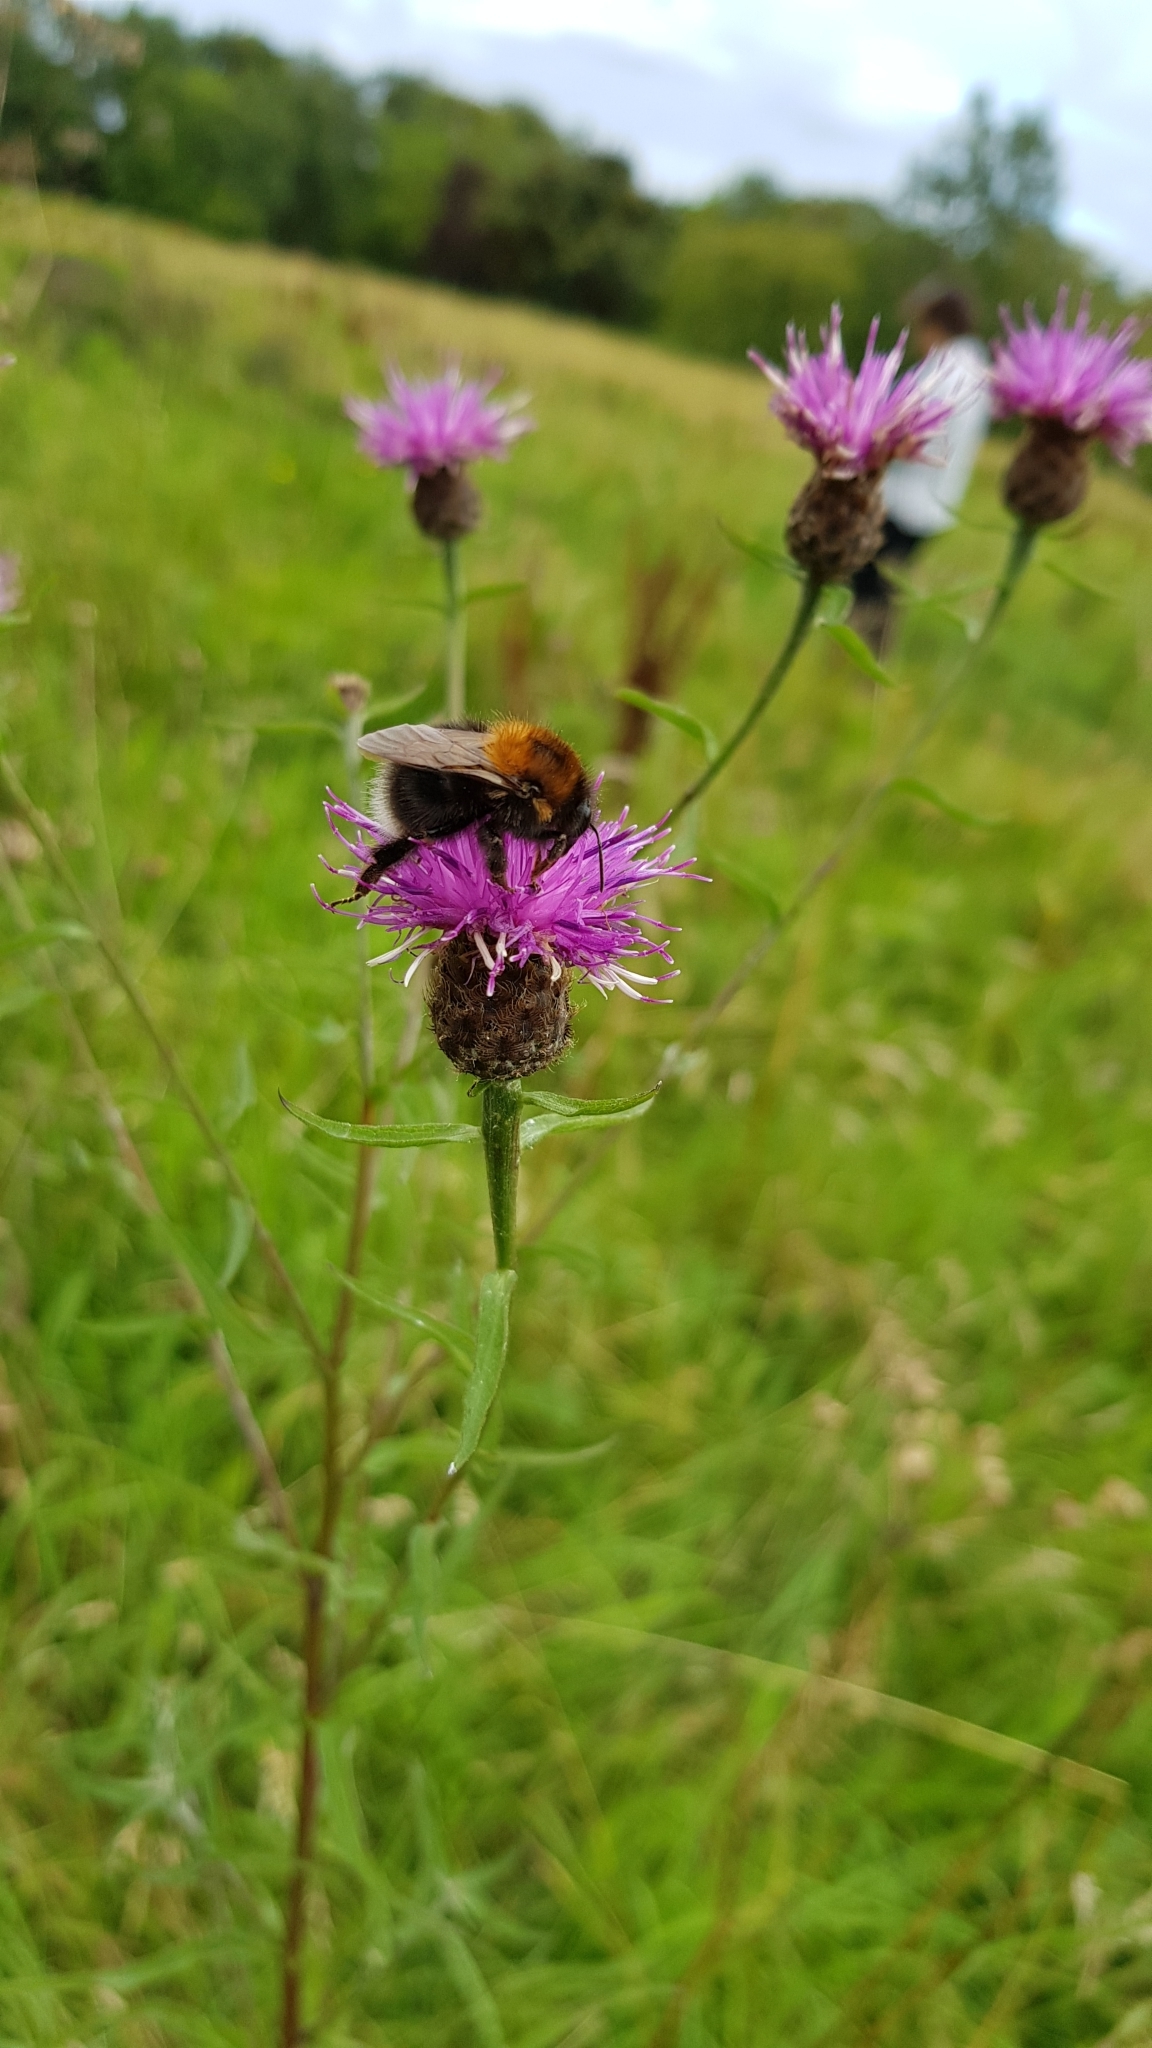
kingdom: Animalia
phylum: Arthropoda
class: Insecta
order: Hymenoptera
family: Apidae
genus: Bombus
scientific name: Bombus hypnorum
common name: New garden bumblebee
